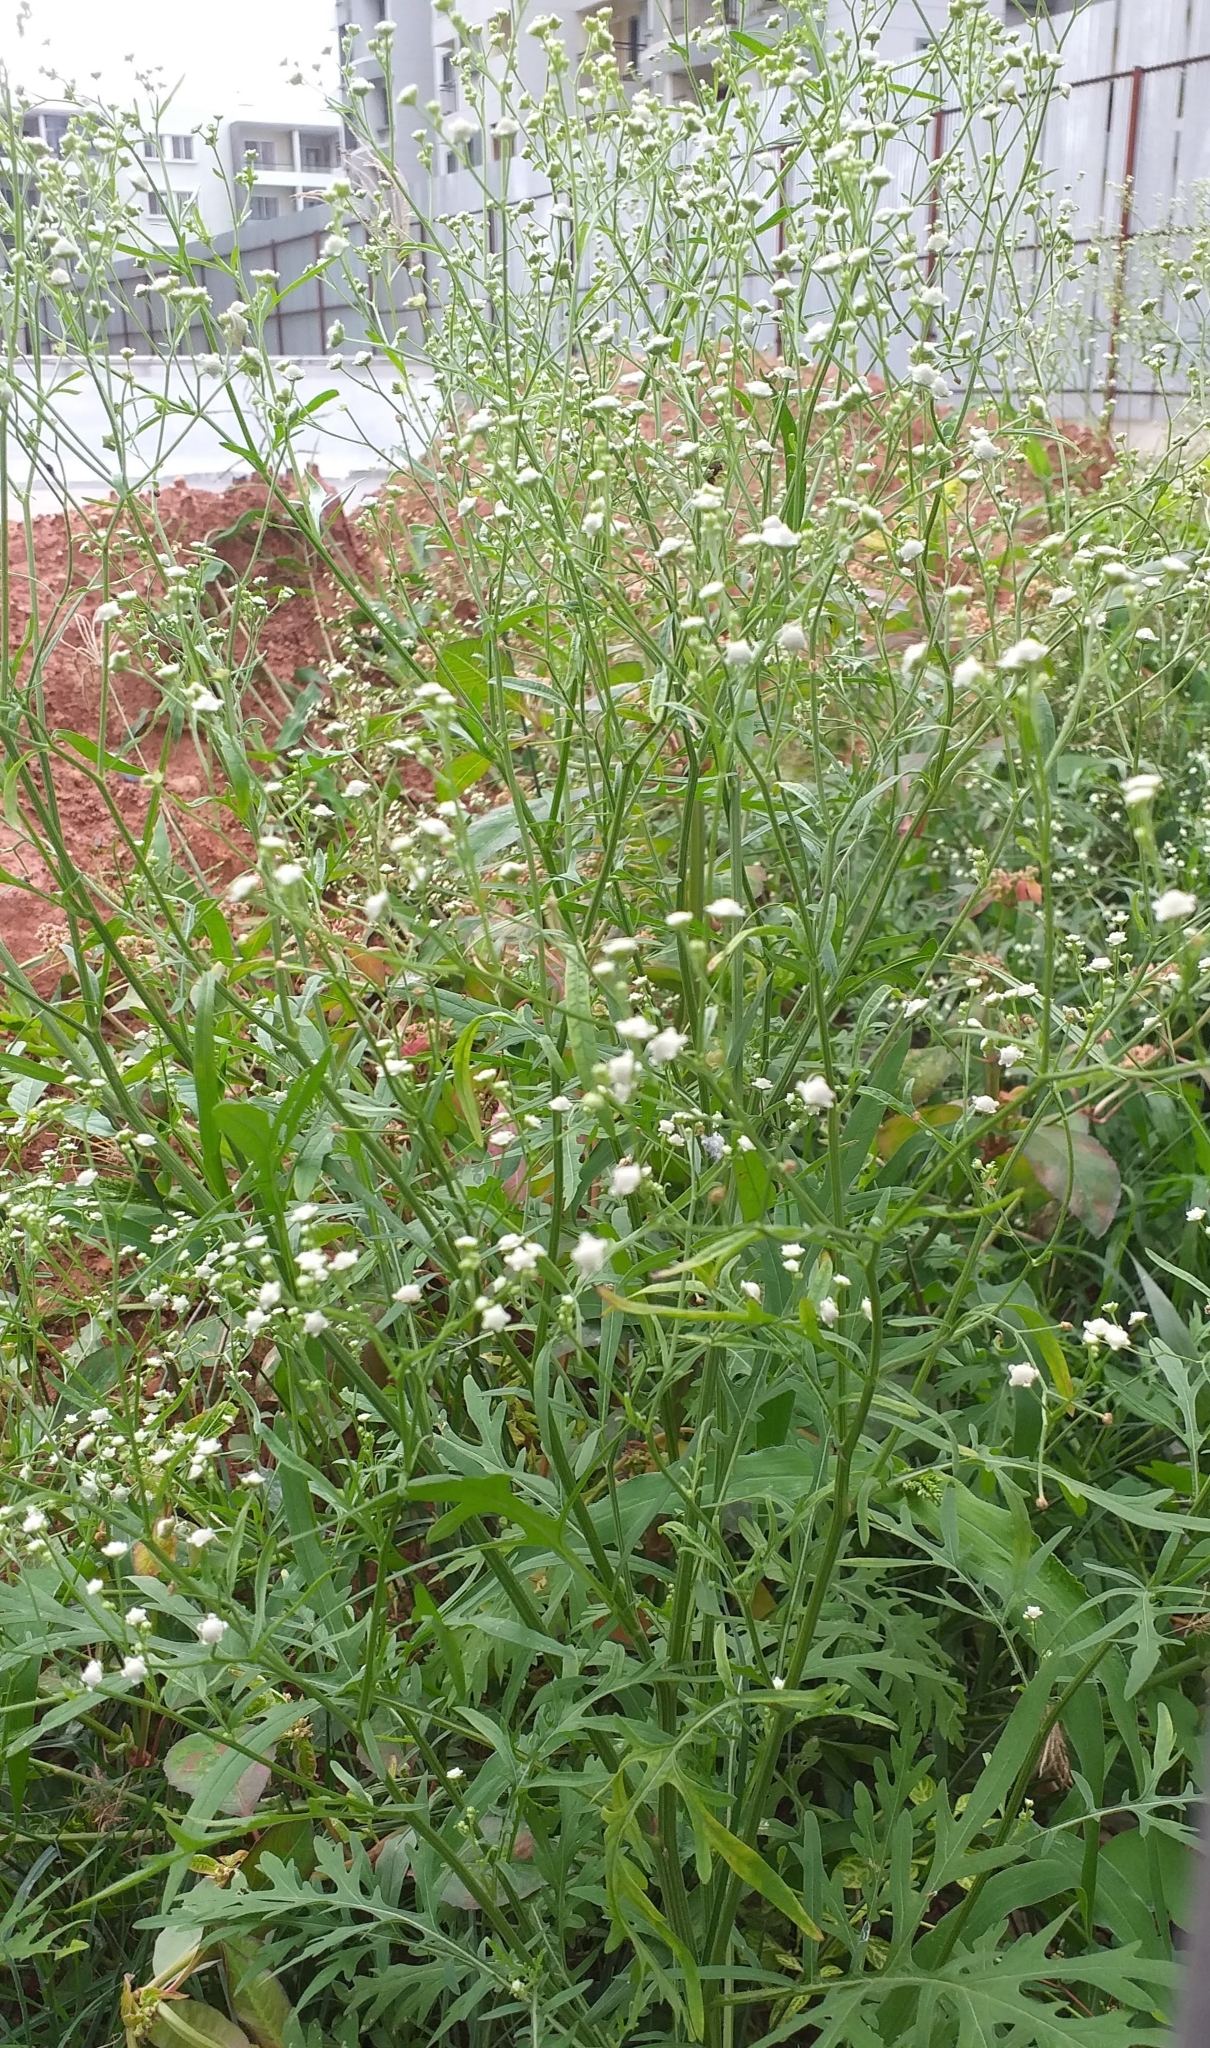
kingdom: Plantae
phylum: Tracheophyta
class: Magnoliopsida
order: Asterales
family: Asteraceae
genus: Parthenium
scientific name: Parthenium hysterophorus
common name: Santa maria feverfew
